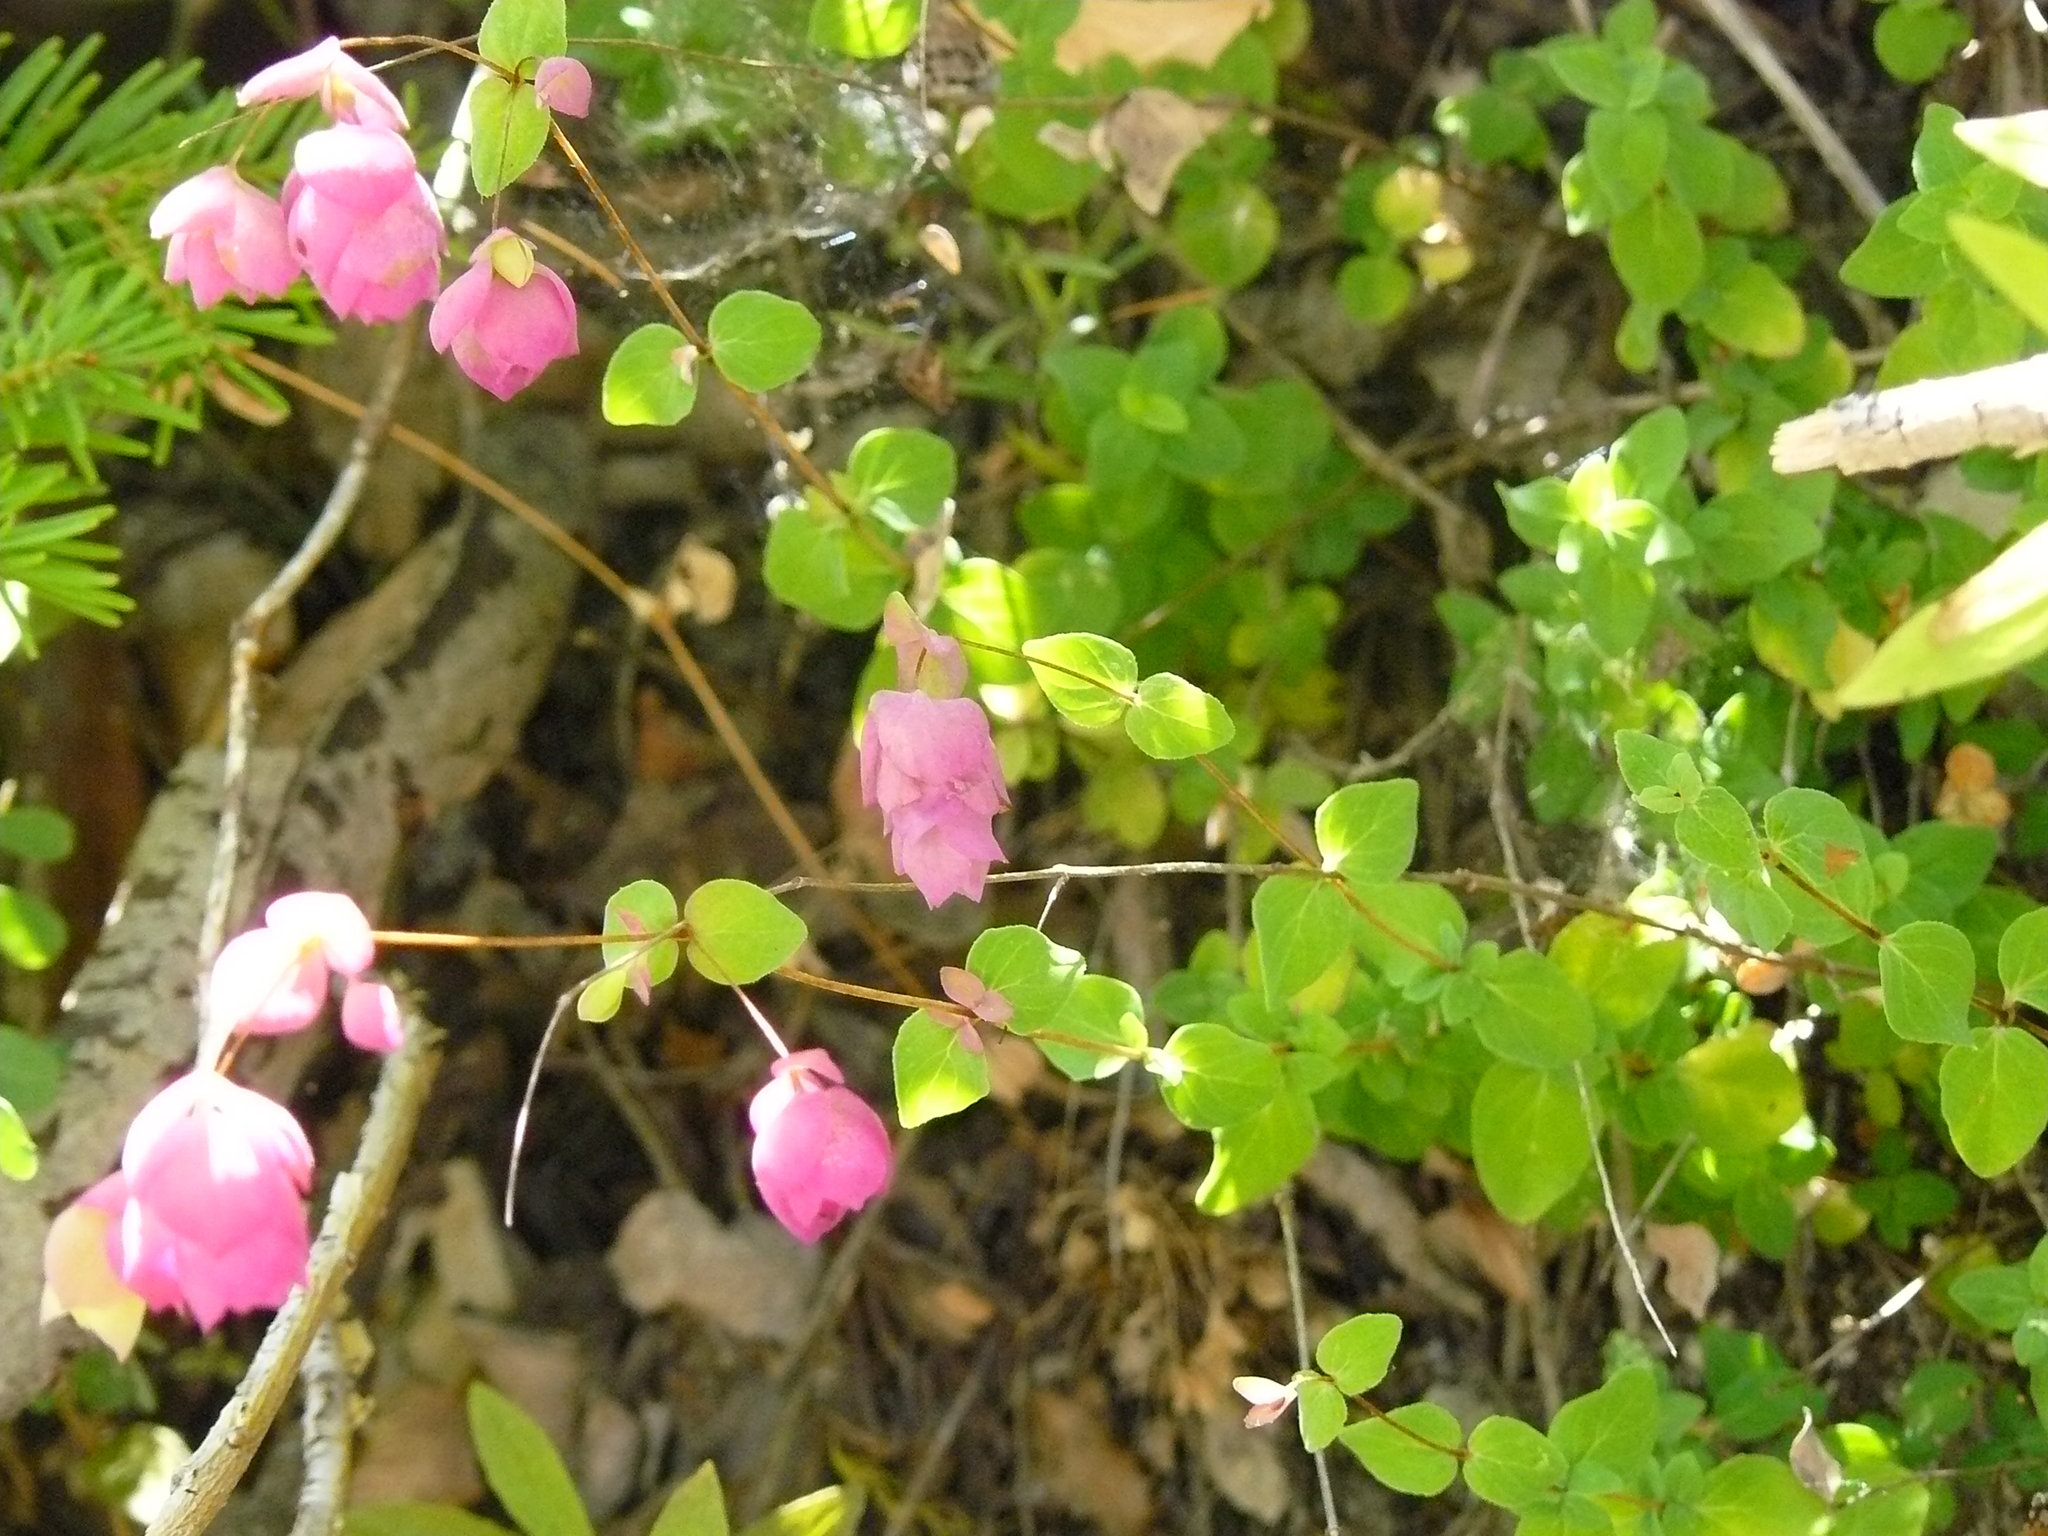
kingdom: Plantae
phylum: Tracheophyta
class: Magnoliopsida
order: Lamiales
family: Lamiaceae
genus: Origanum
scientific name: Origanum libanoticum
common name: Lebanon oregano
